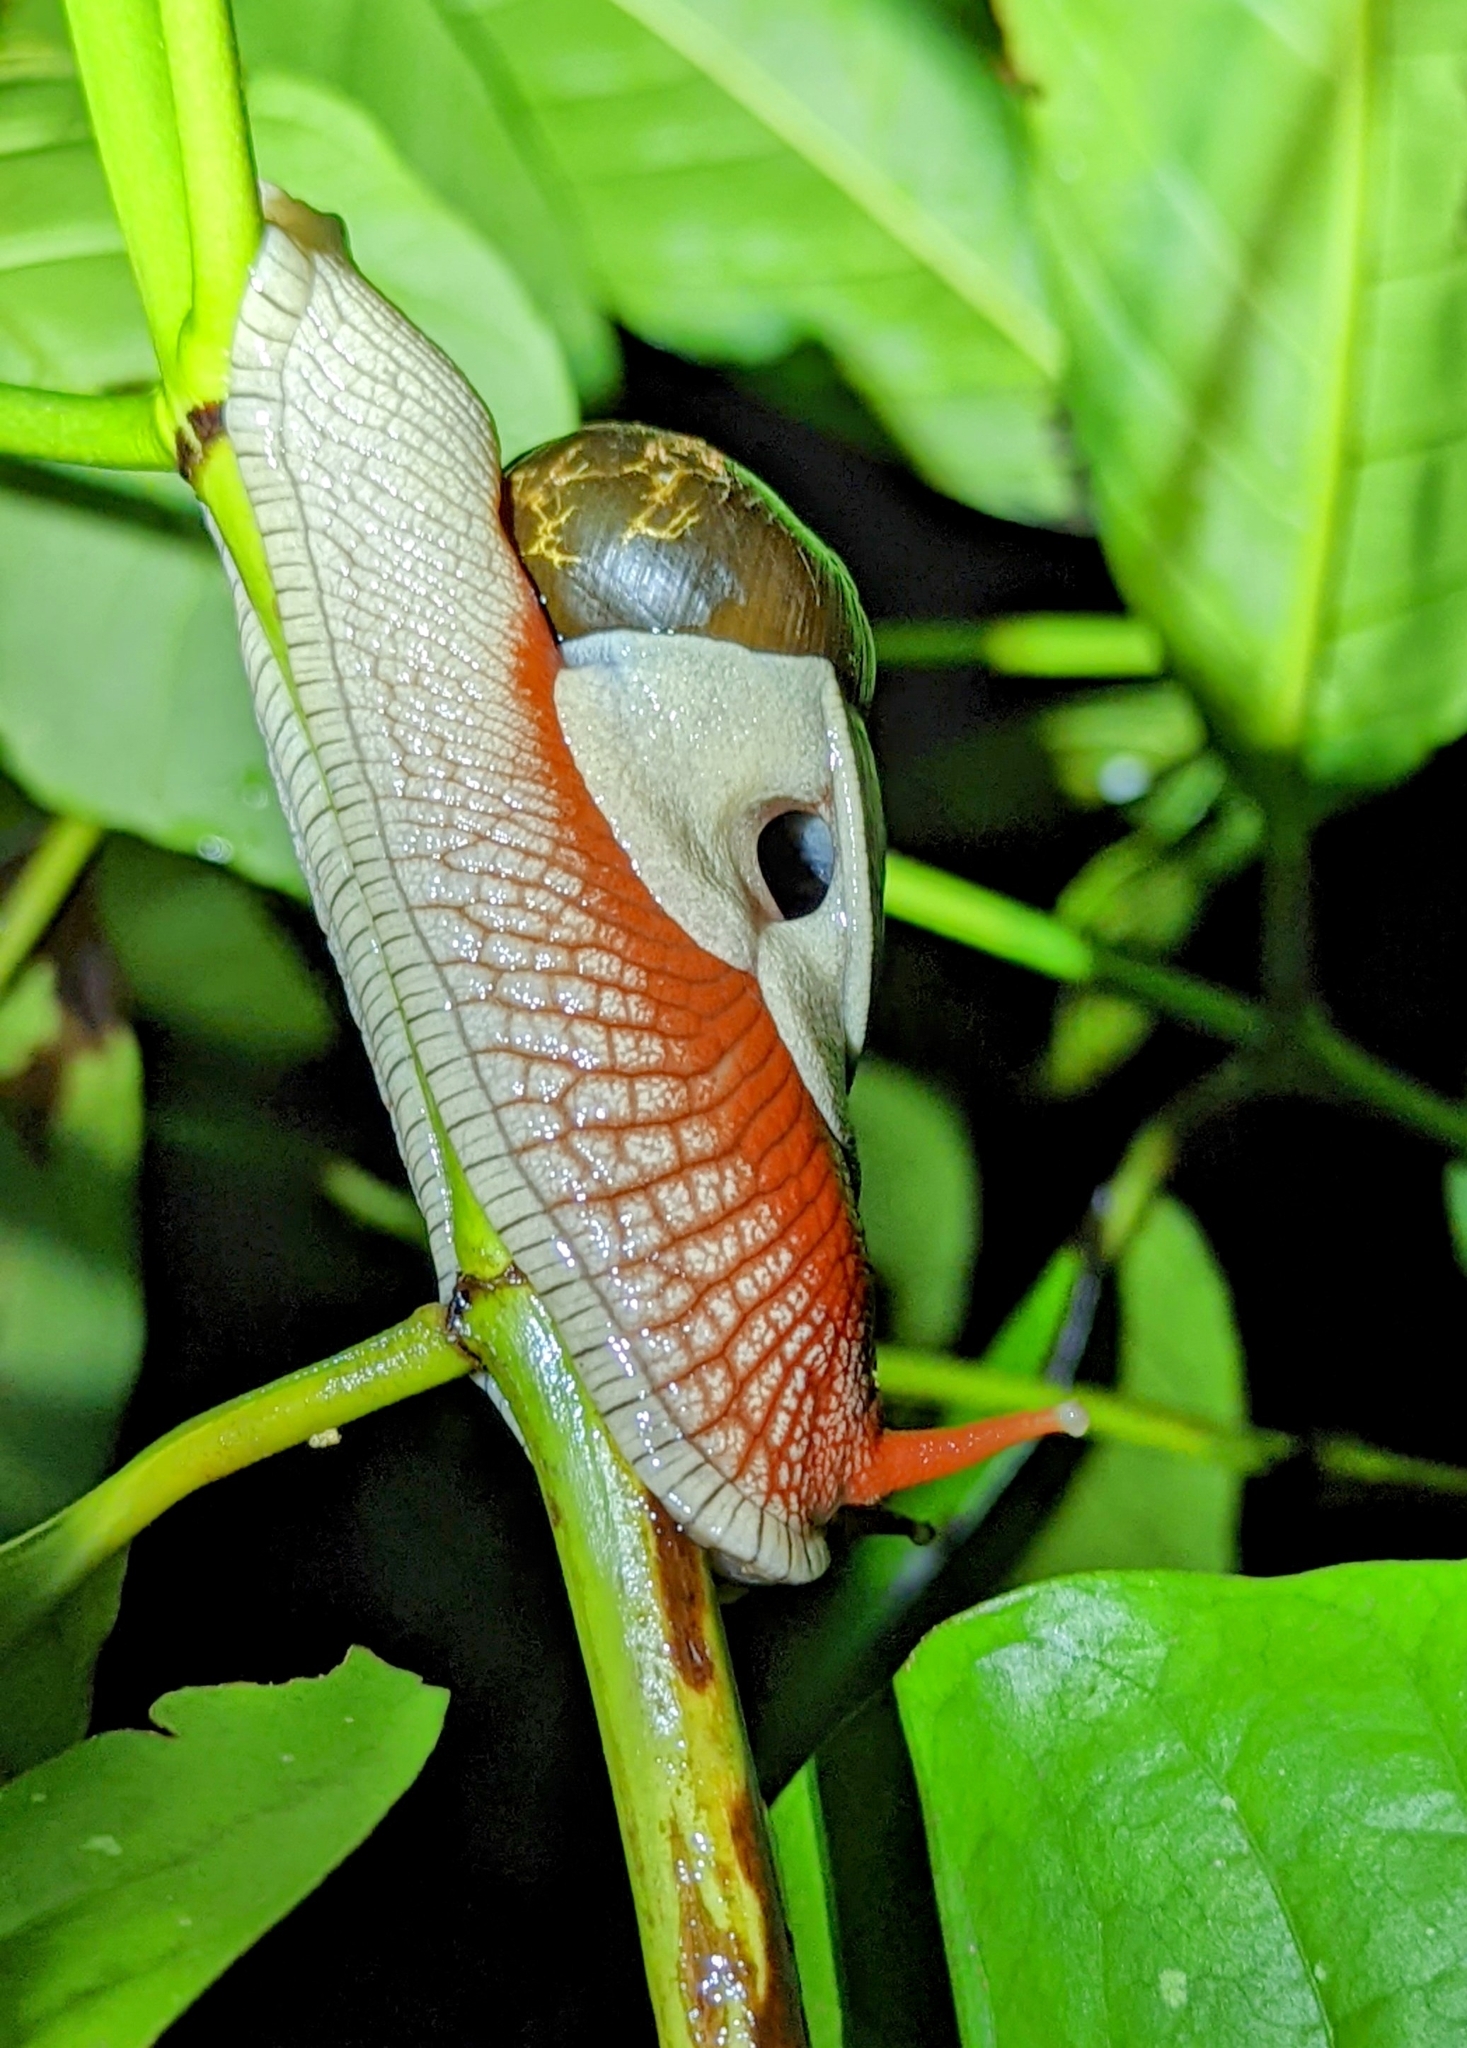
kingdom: Animalia
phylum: Mollusca
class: Gastropoda
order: Stylommatophora
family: Ariophantidae
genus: Indrella
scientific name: Indrella ampulla
